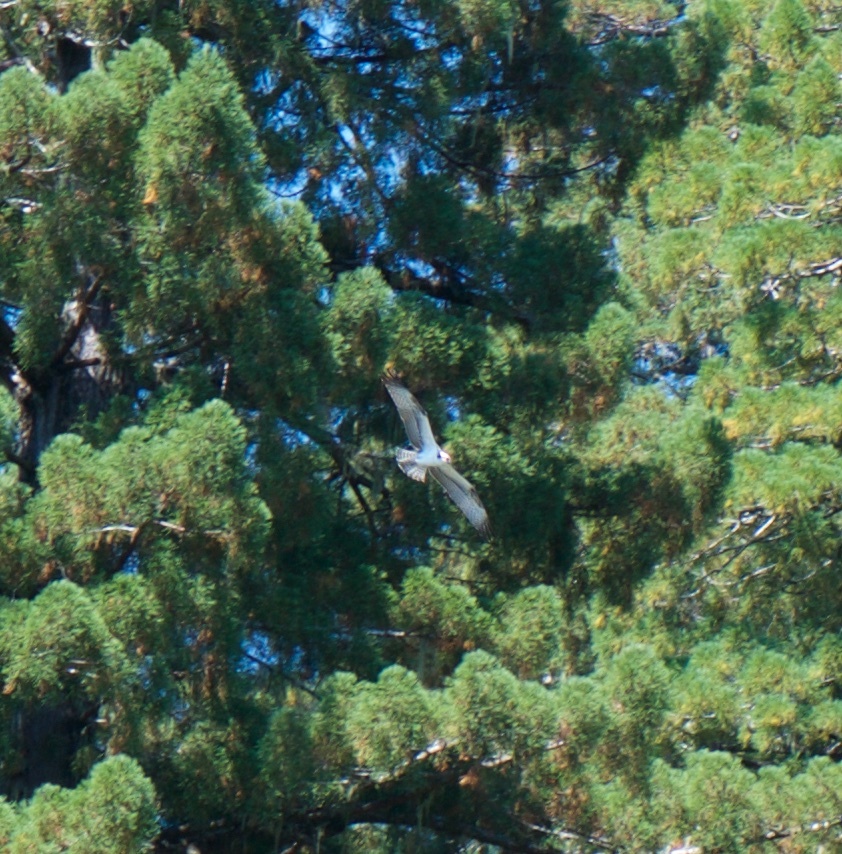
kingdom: Animalia
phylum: Chordata
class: Aves
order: Accipitriformes
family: Pandionidae
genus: Pandion
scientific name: Pandion haliaetus
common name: Osprey
